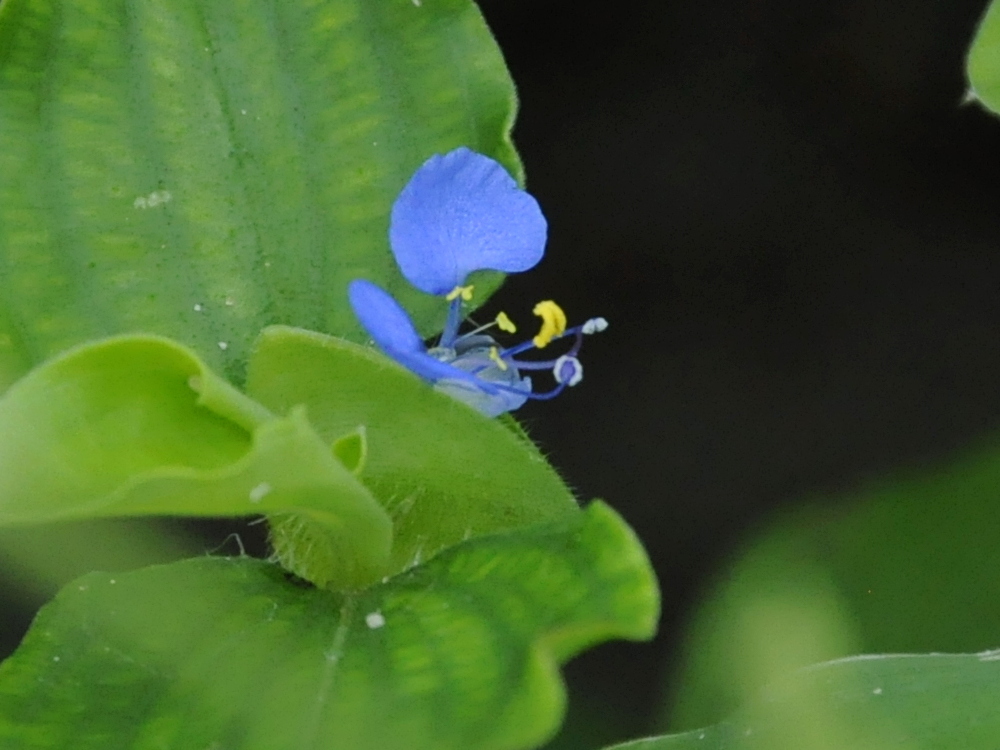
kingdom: Plantae
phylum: Tracheophyta
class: Liliopsida
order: Commelinales
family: Commelinaceae
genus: Commelina
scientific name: Commelina benghalensis
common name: Jio
